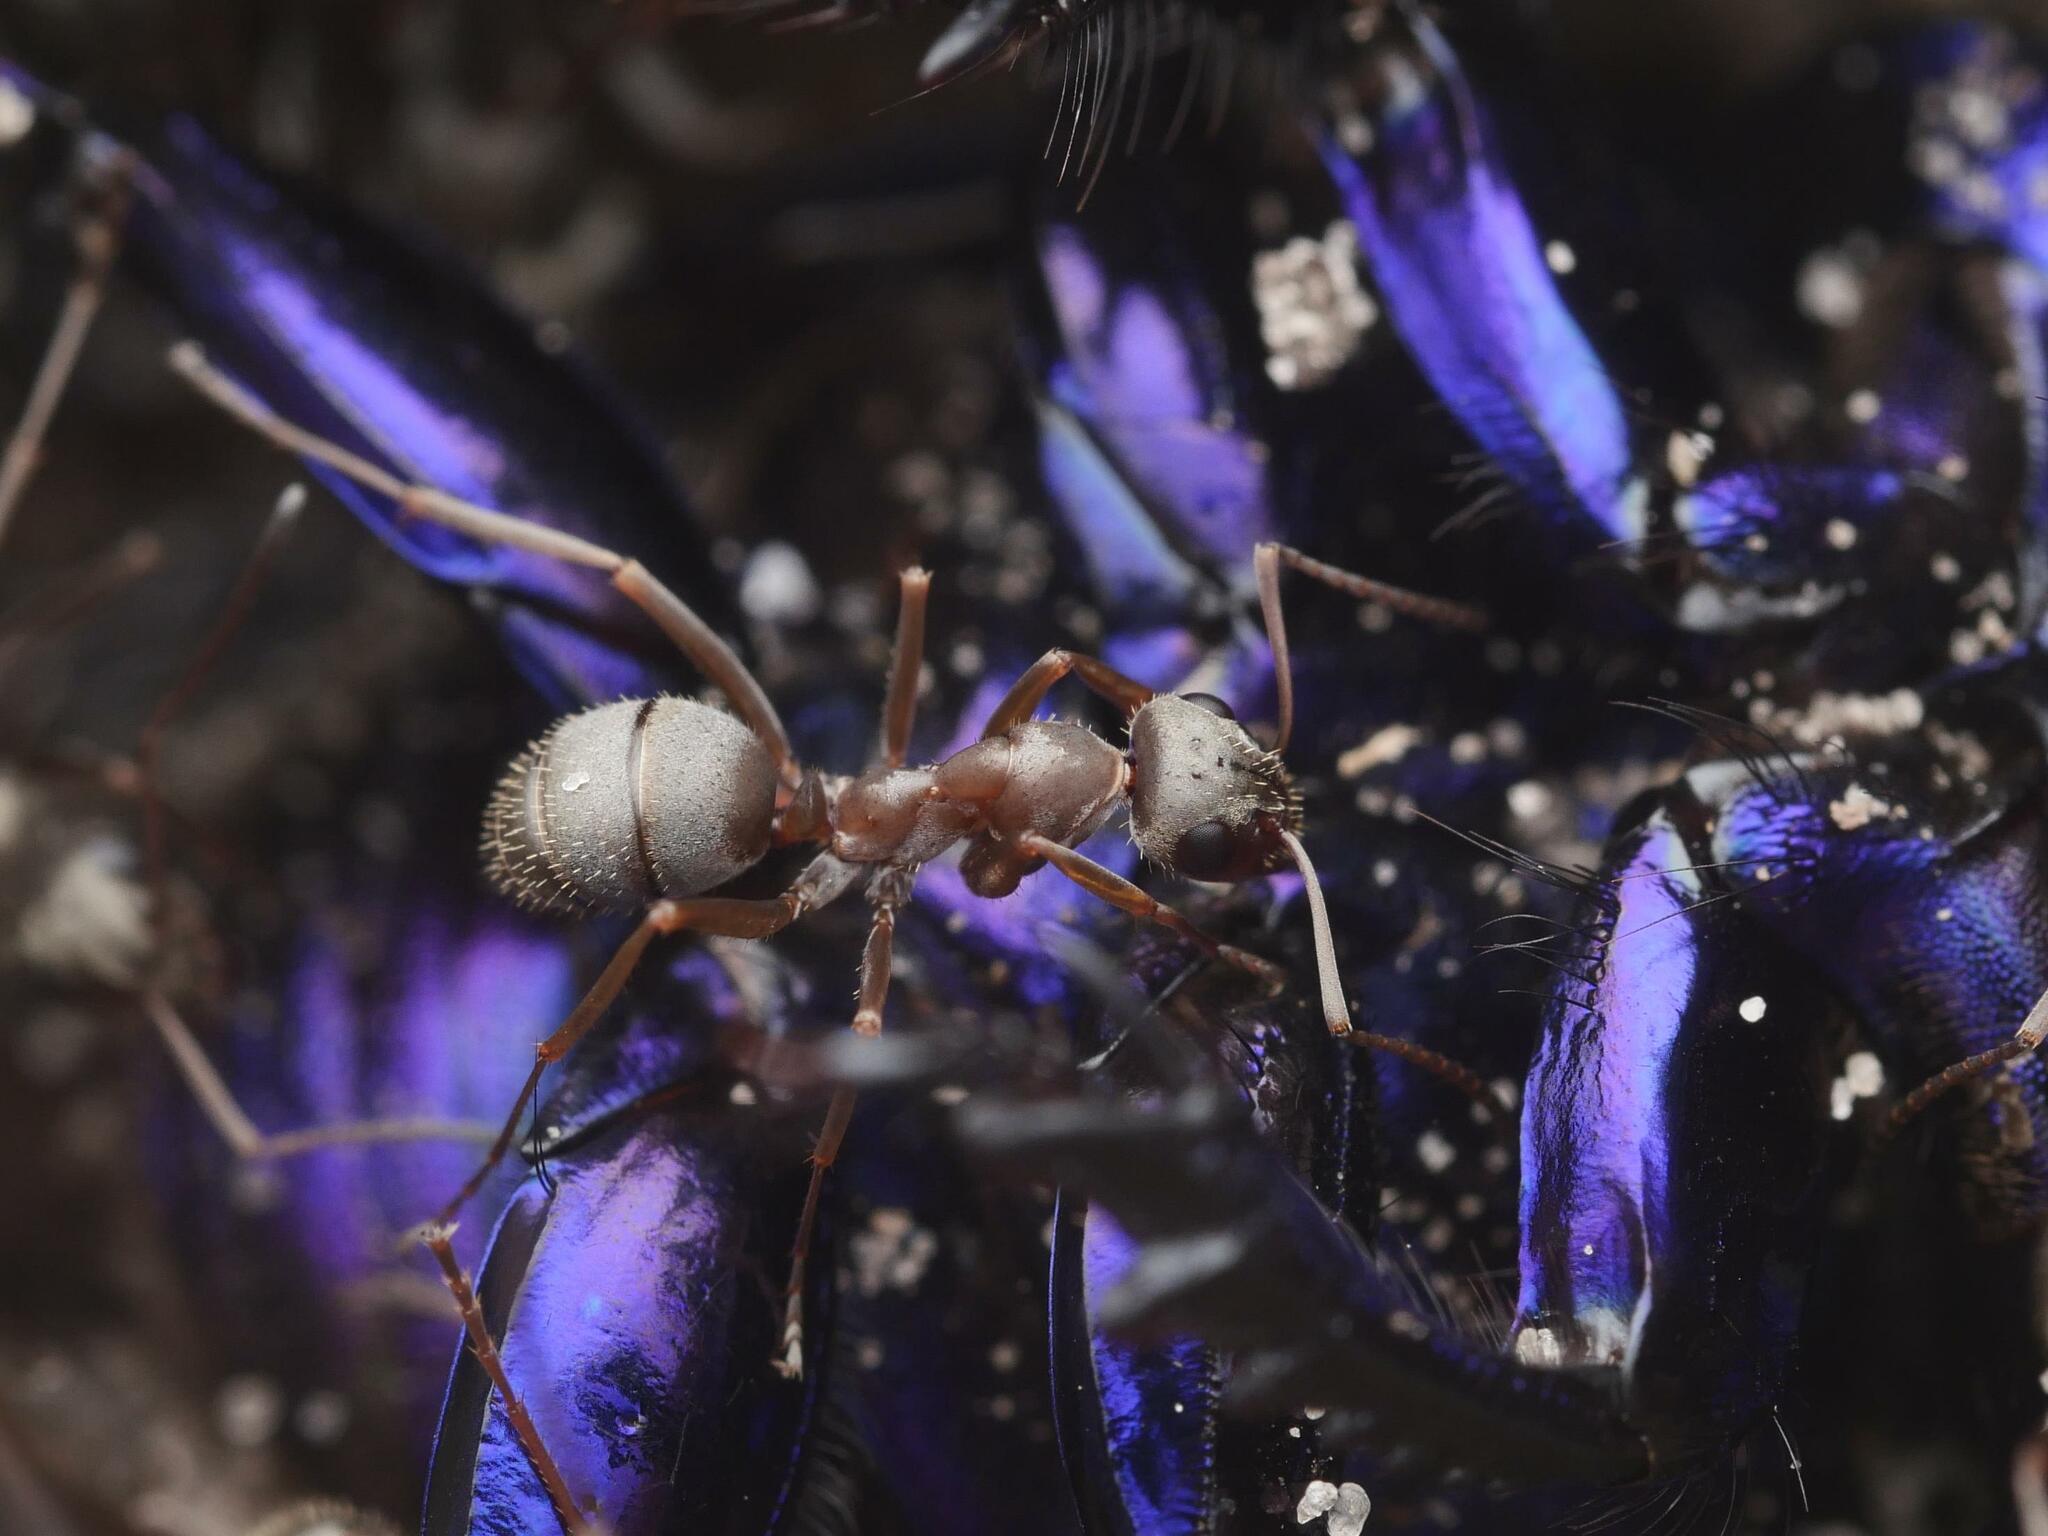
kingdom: Animalia
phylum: Arthropoda
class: Insecta
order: Hymenoptera
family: Formicidae
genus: Formica
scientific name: Formica cinerea
